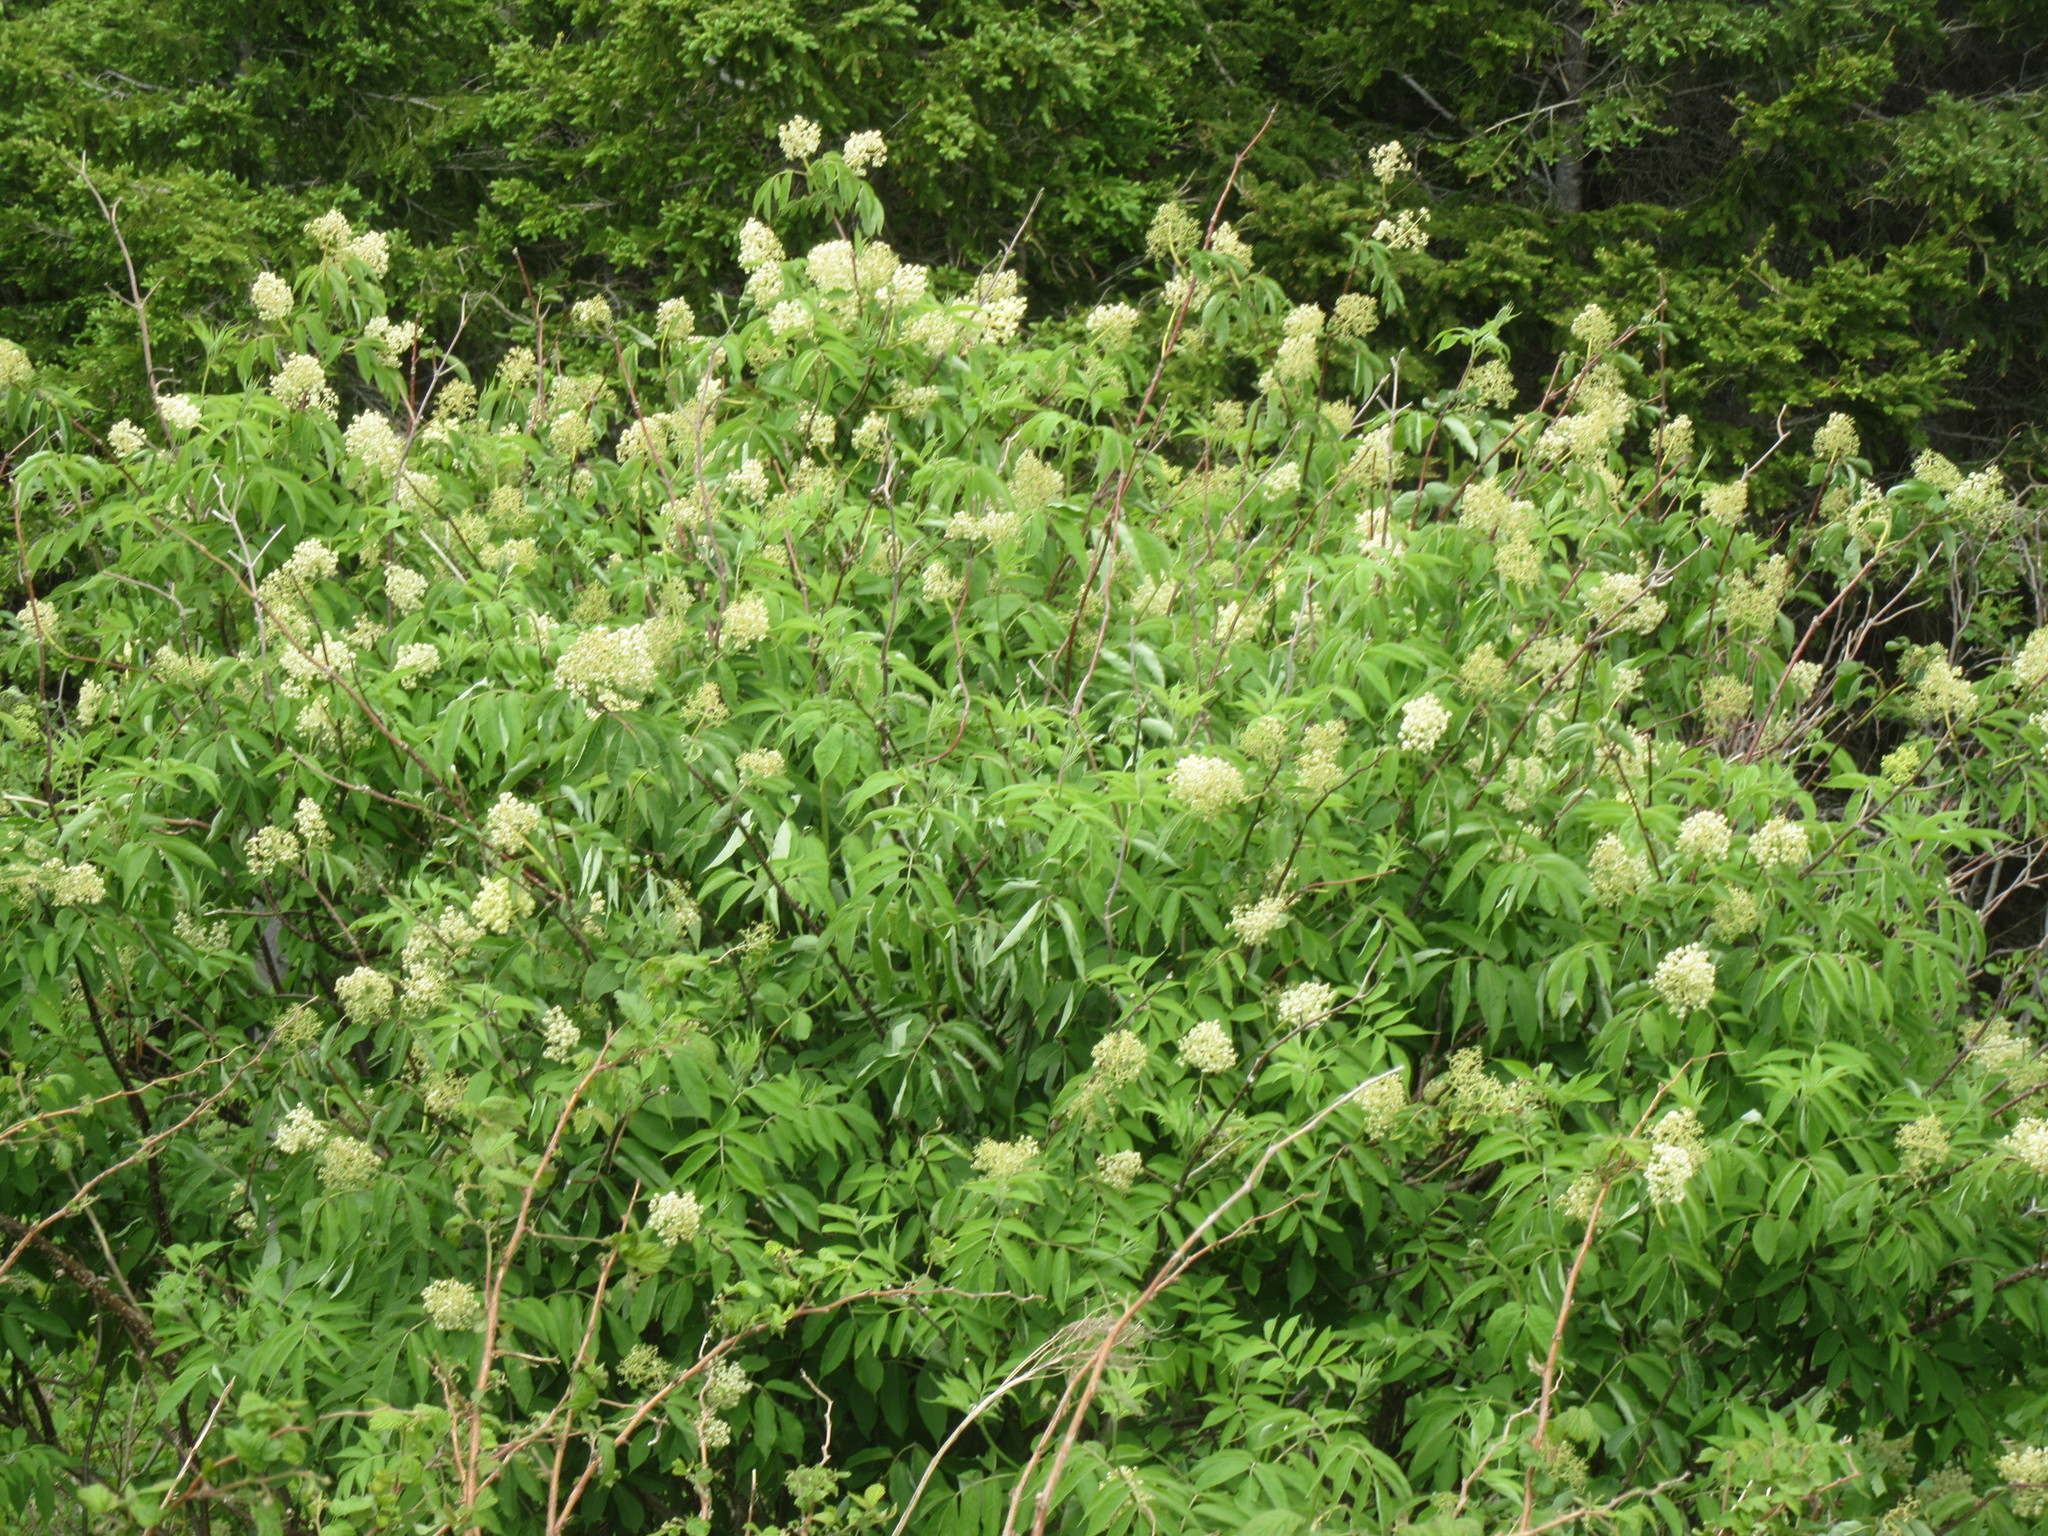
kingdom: Plantae
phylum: Tracheophyta
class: Magnoliopsida
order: Dipsacales
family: Viburnaceae
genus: Sambucus
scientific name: Sambucus racemosa
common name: Red-berried elder
